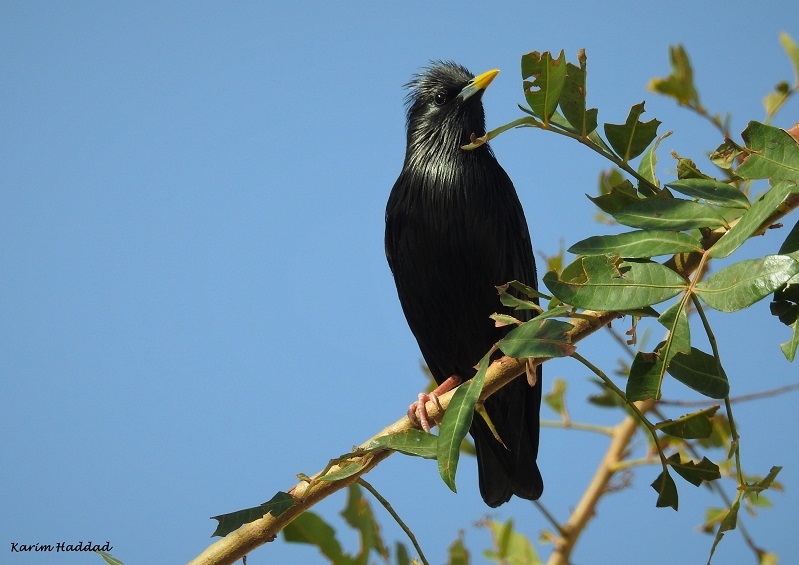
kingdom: Animalia
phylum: Chordata
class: Aves
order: Passeriformes
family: Sturnidae
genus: Sturnus
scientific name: Sturnus unicolor
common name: Spotless starling
